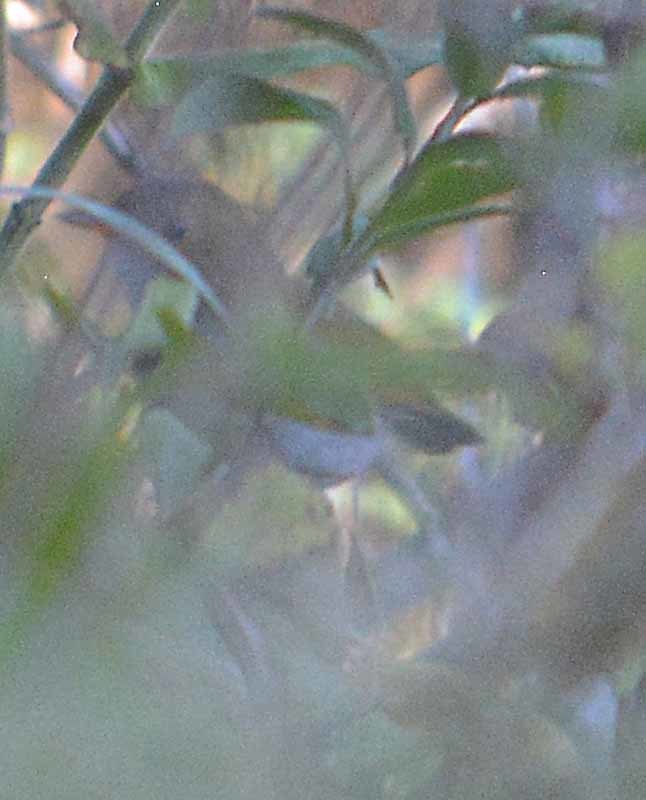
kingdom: Animalia
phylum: Chordata
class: Aves
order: Passeriformes
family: Turdidae
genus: Catharus
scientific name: Catharus aurantiirostris
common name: Orange-billed nightingale-thrush
